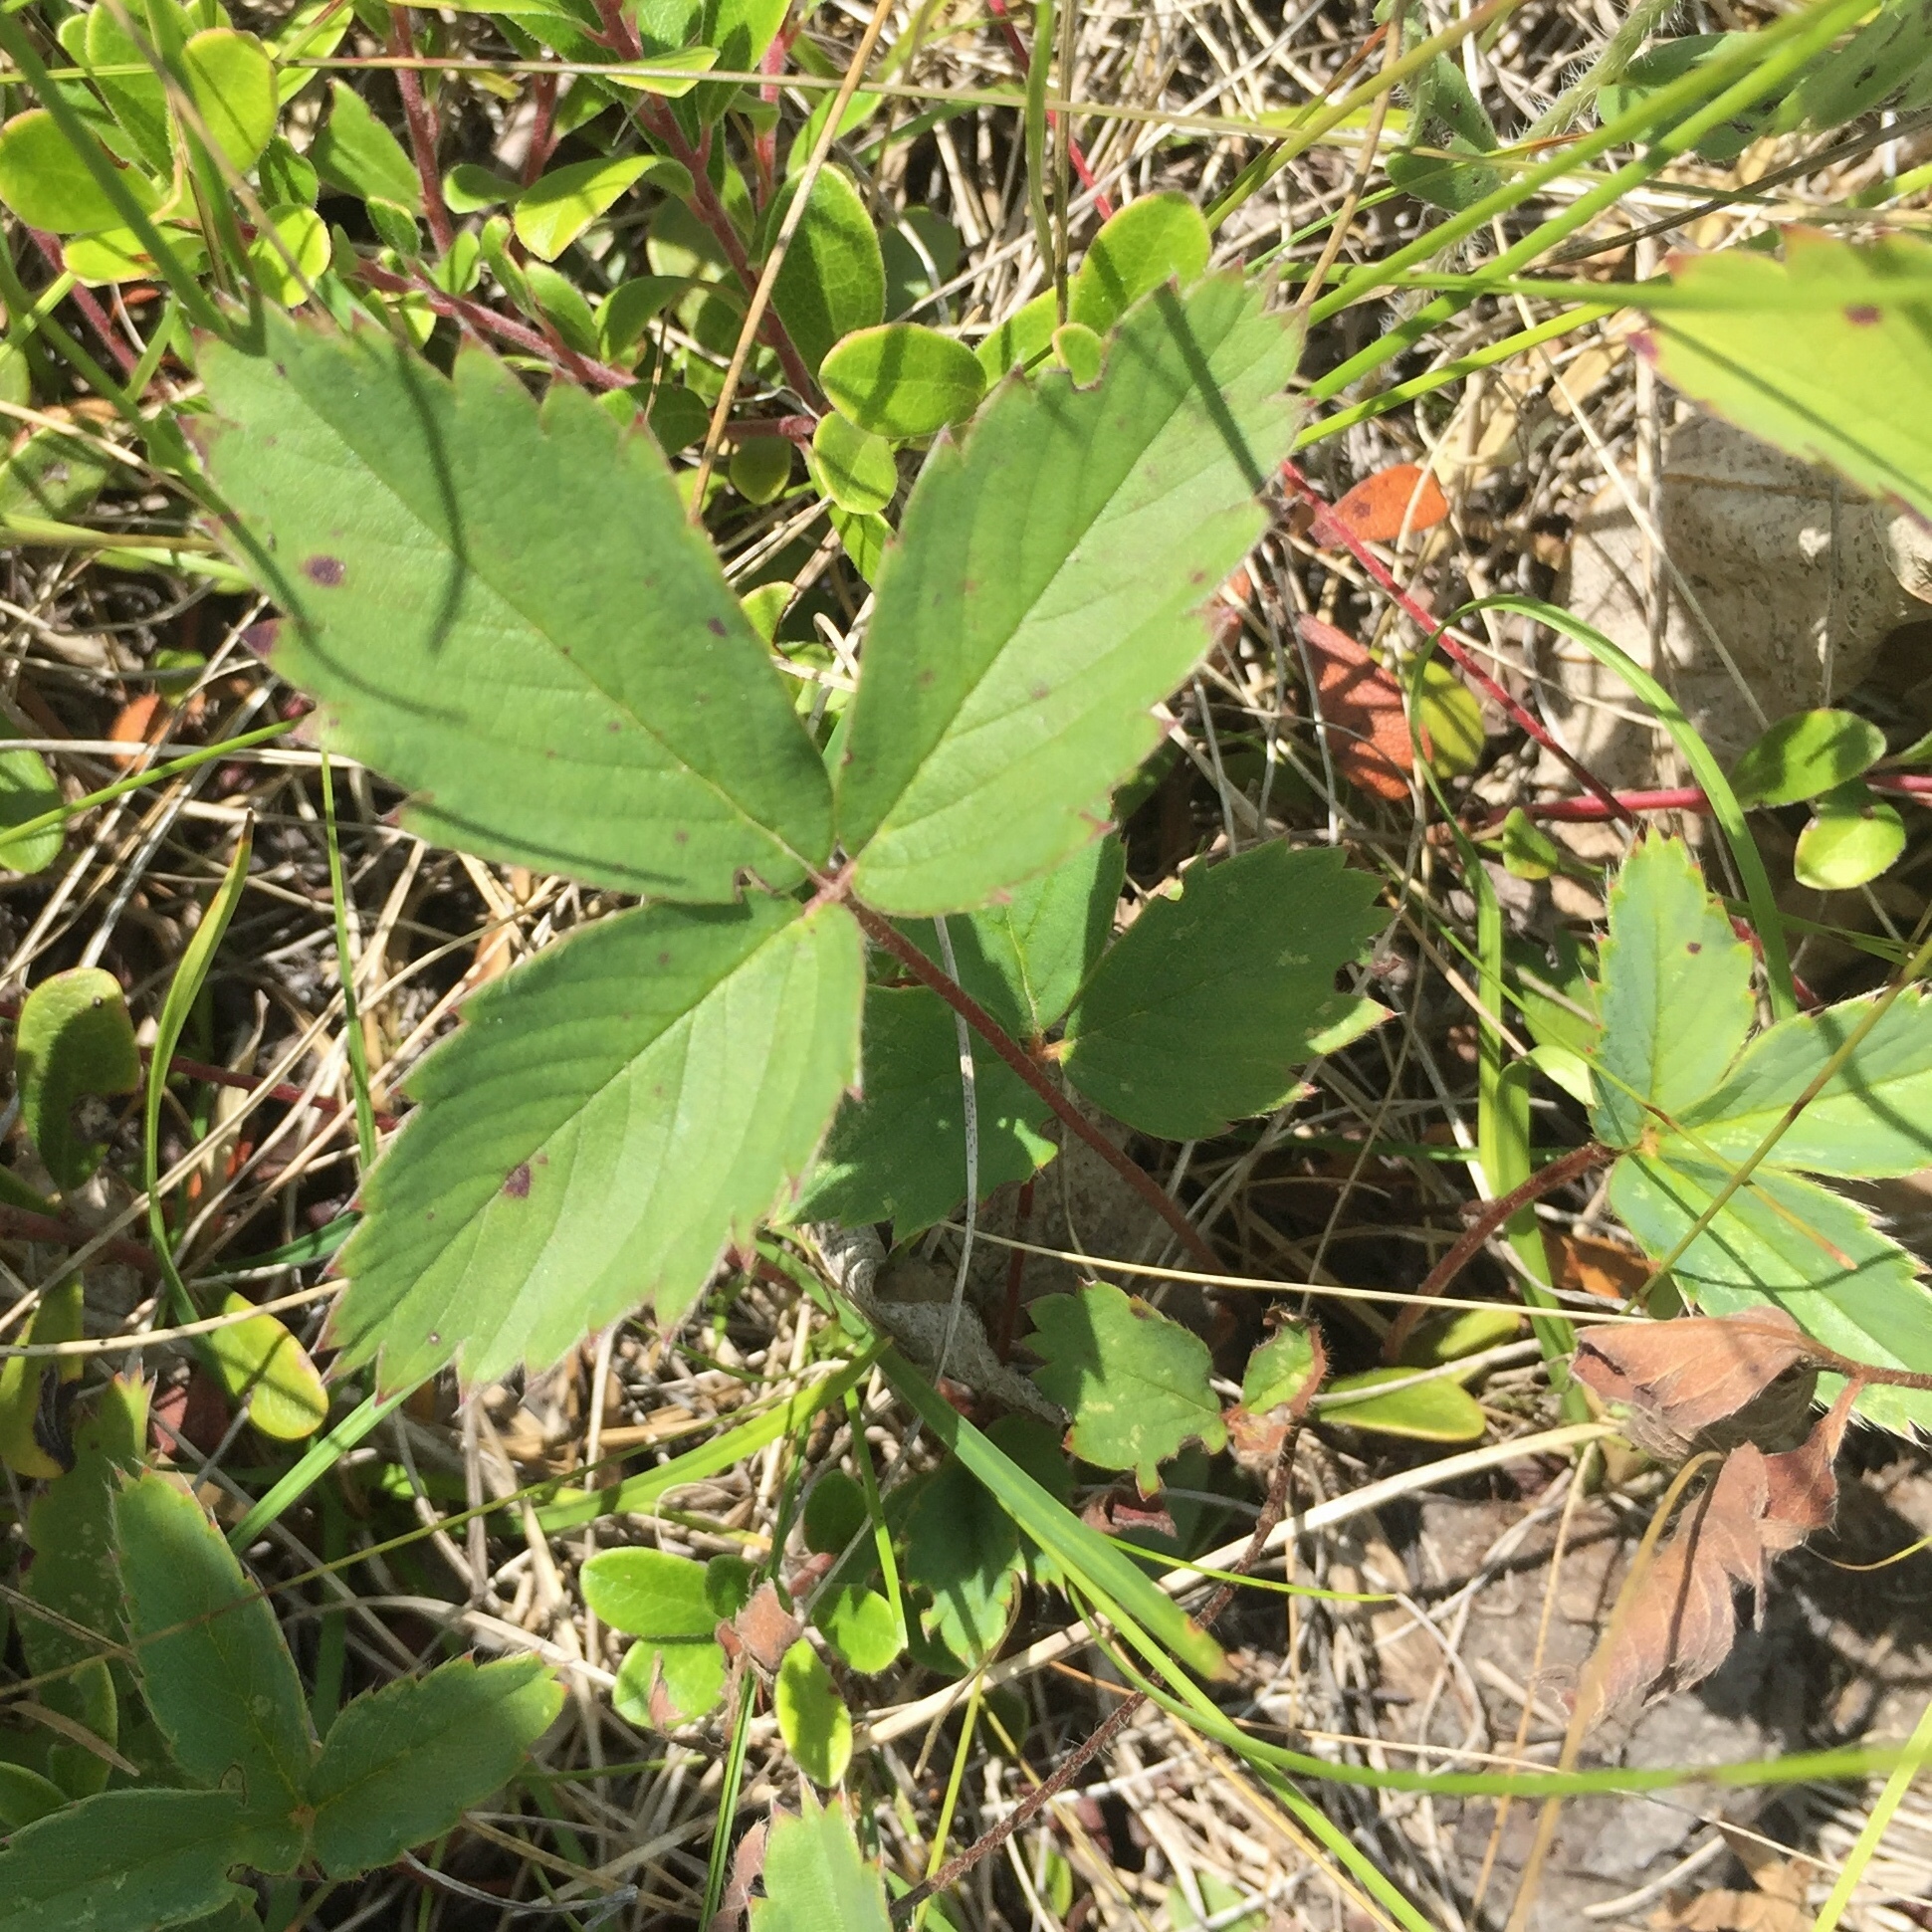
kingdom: Plantae
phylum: Tracheophyta
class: Magnoliopsida
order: Rosales
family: Rosaceae
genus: Fragaria
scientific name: Fragaria virginiana
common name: Thickleaved wild strawberry
